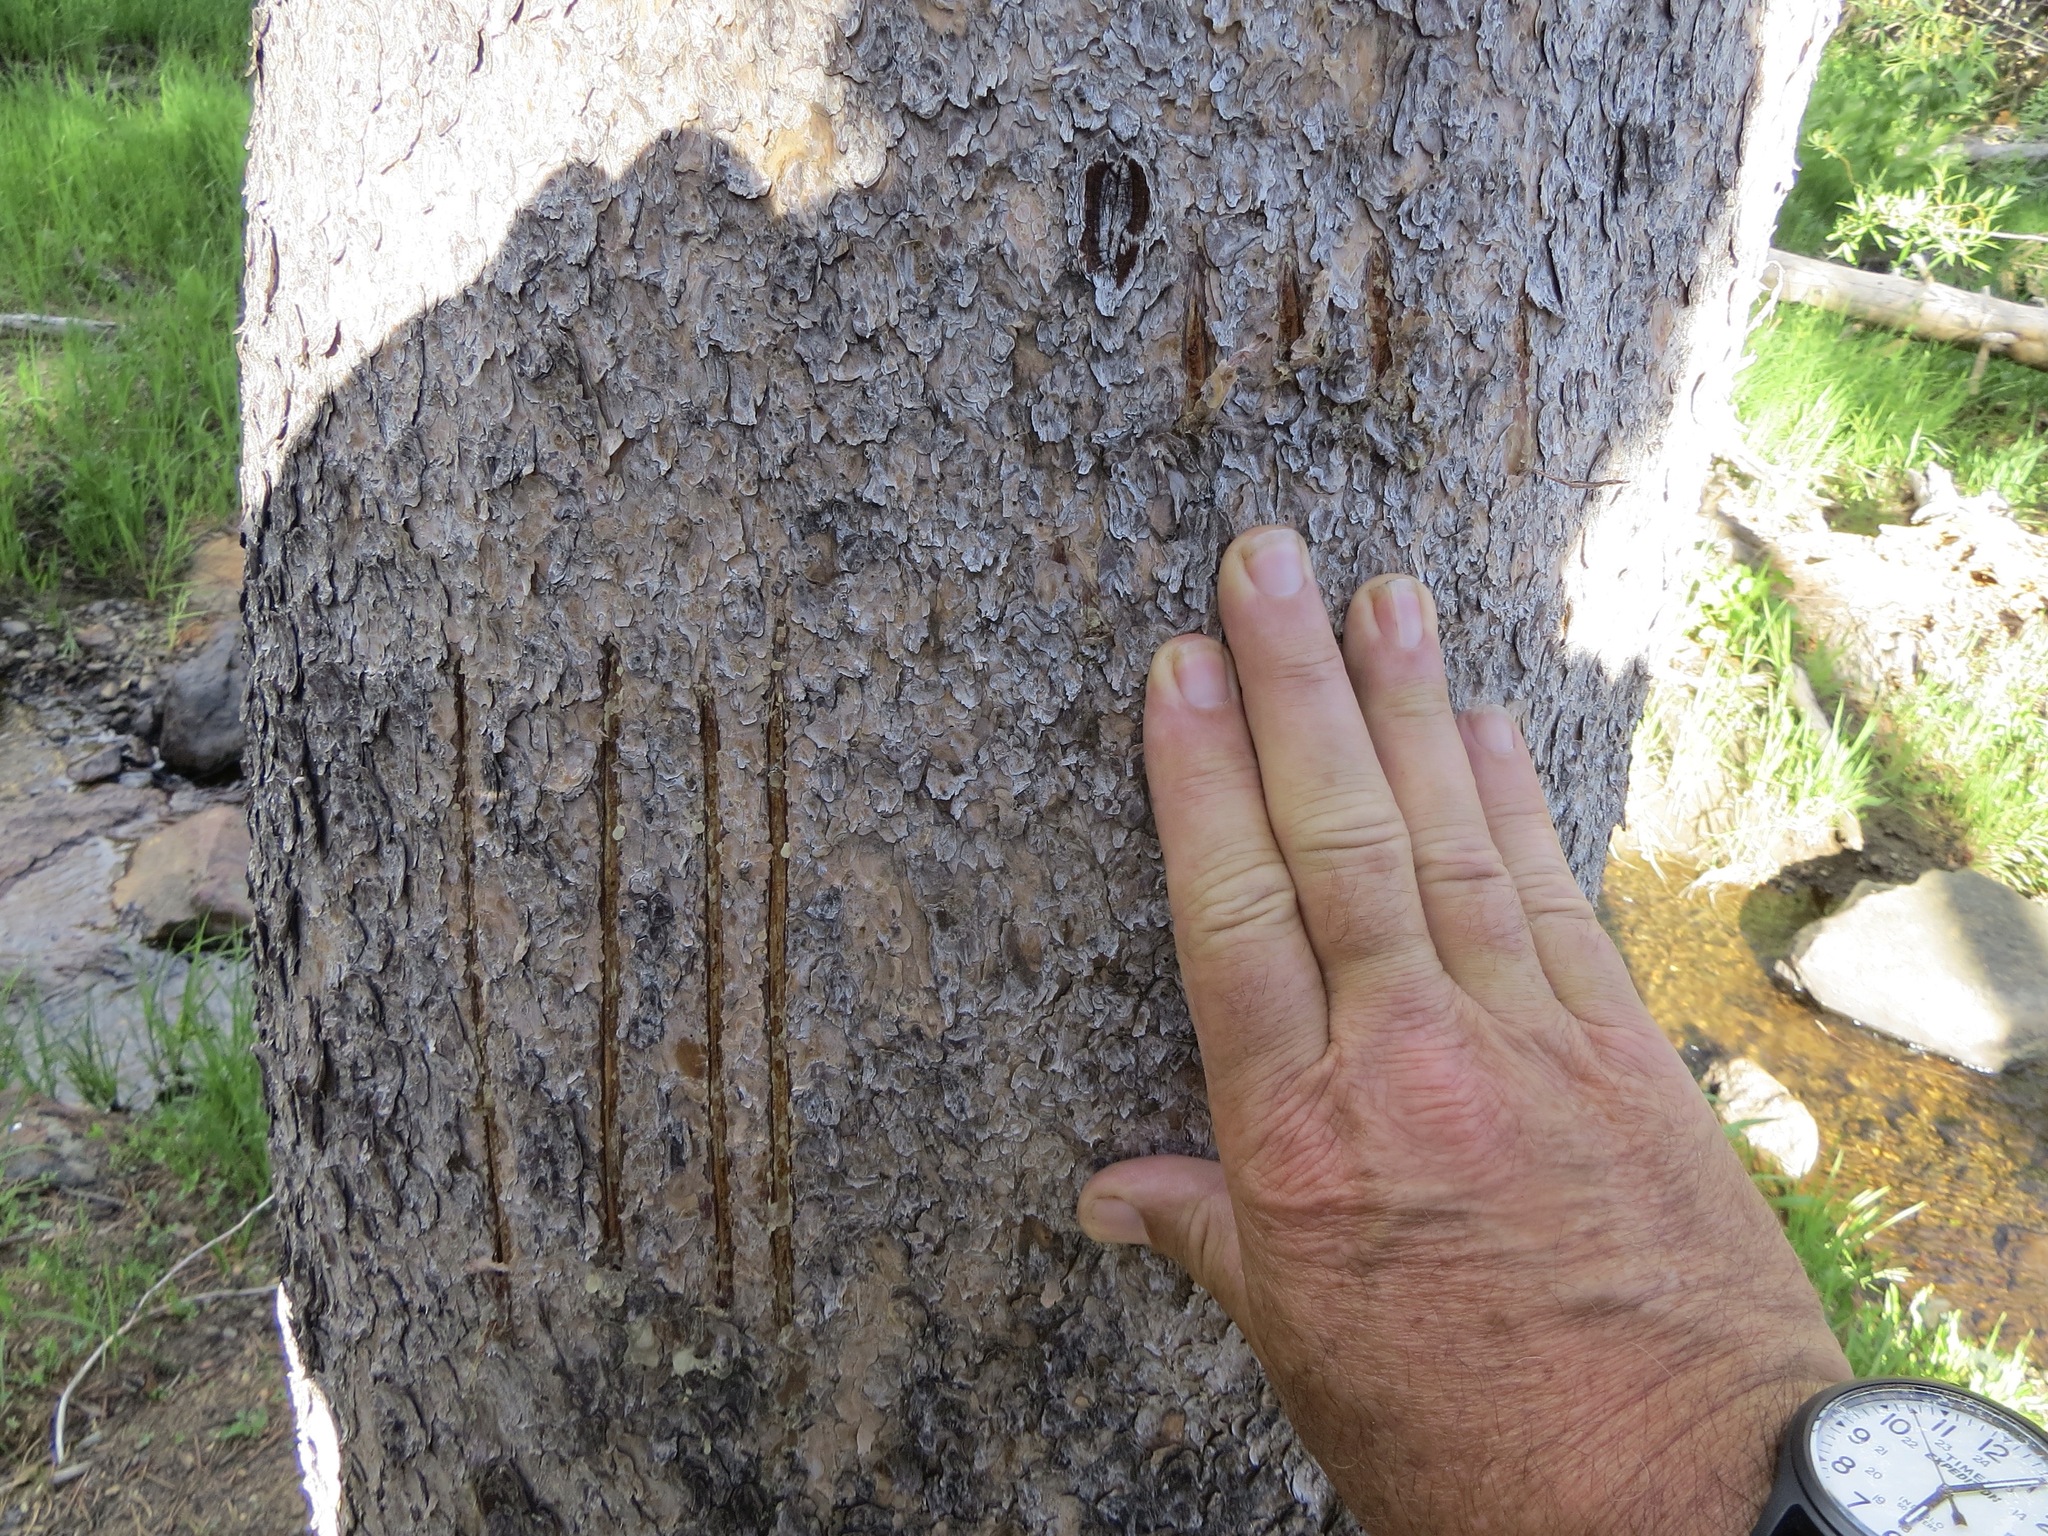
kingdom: Animalia
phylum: Chordata
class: Mammalia
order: Carnivora
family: Ursidae
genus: Ursus
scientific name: Ursus americanus
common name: American black bear
